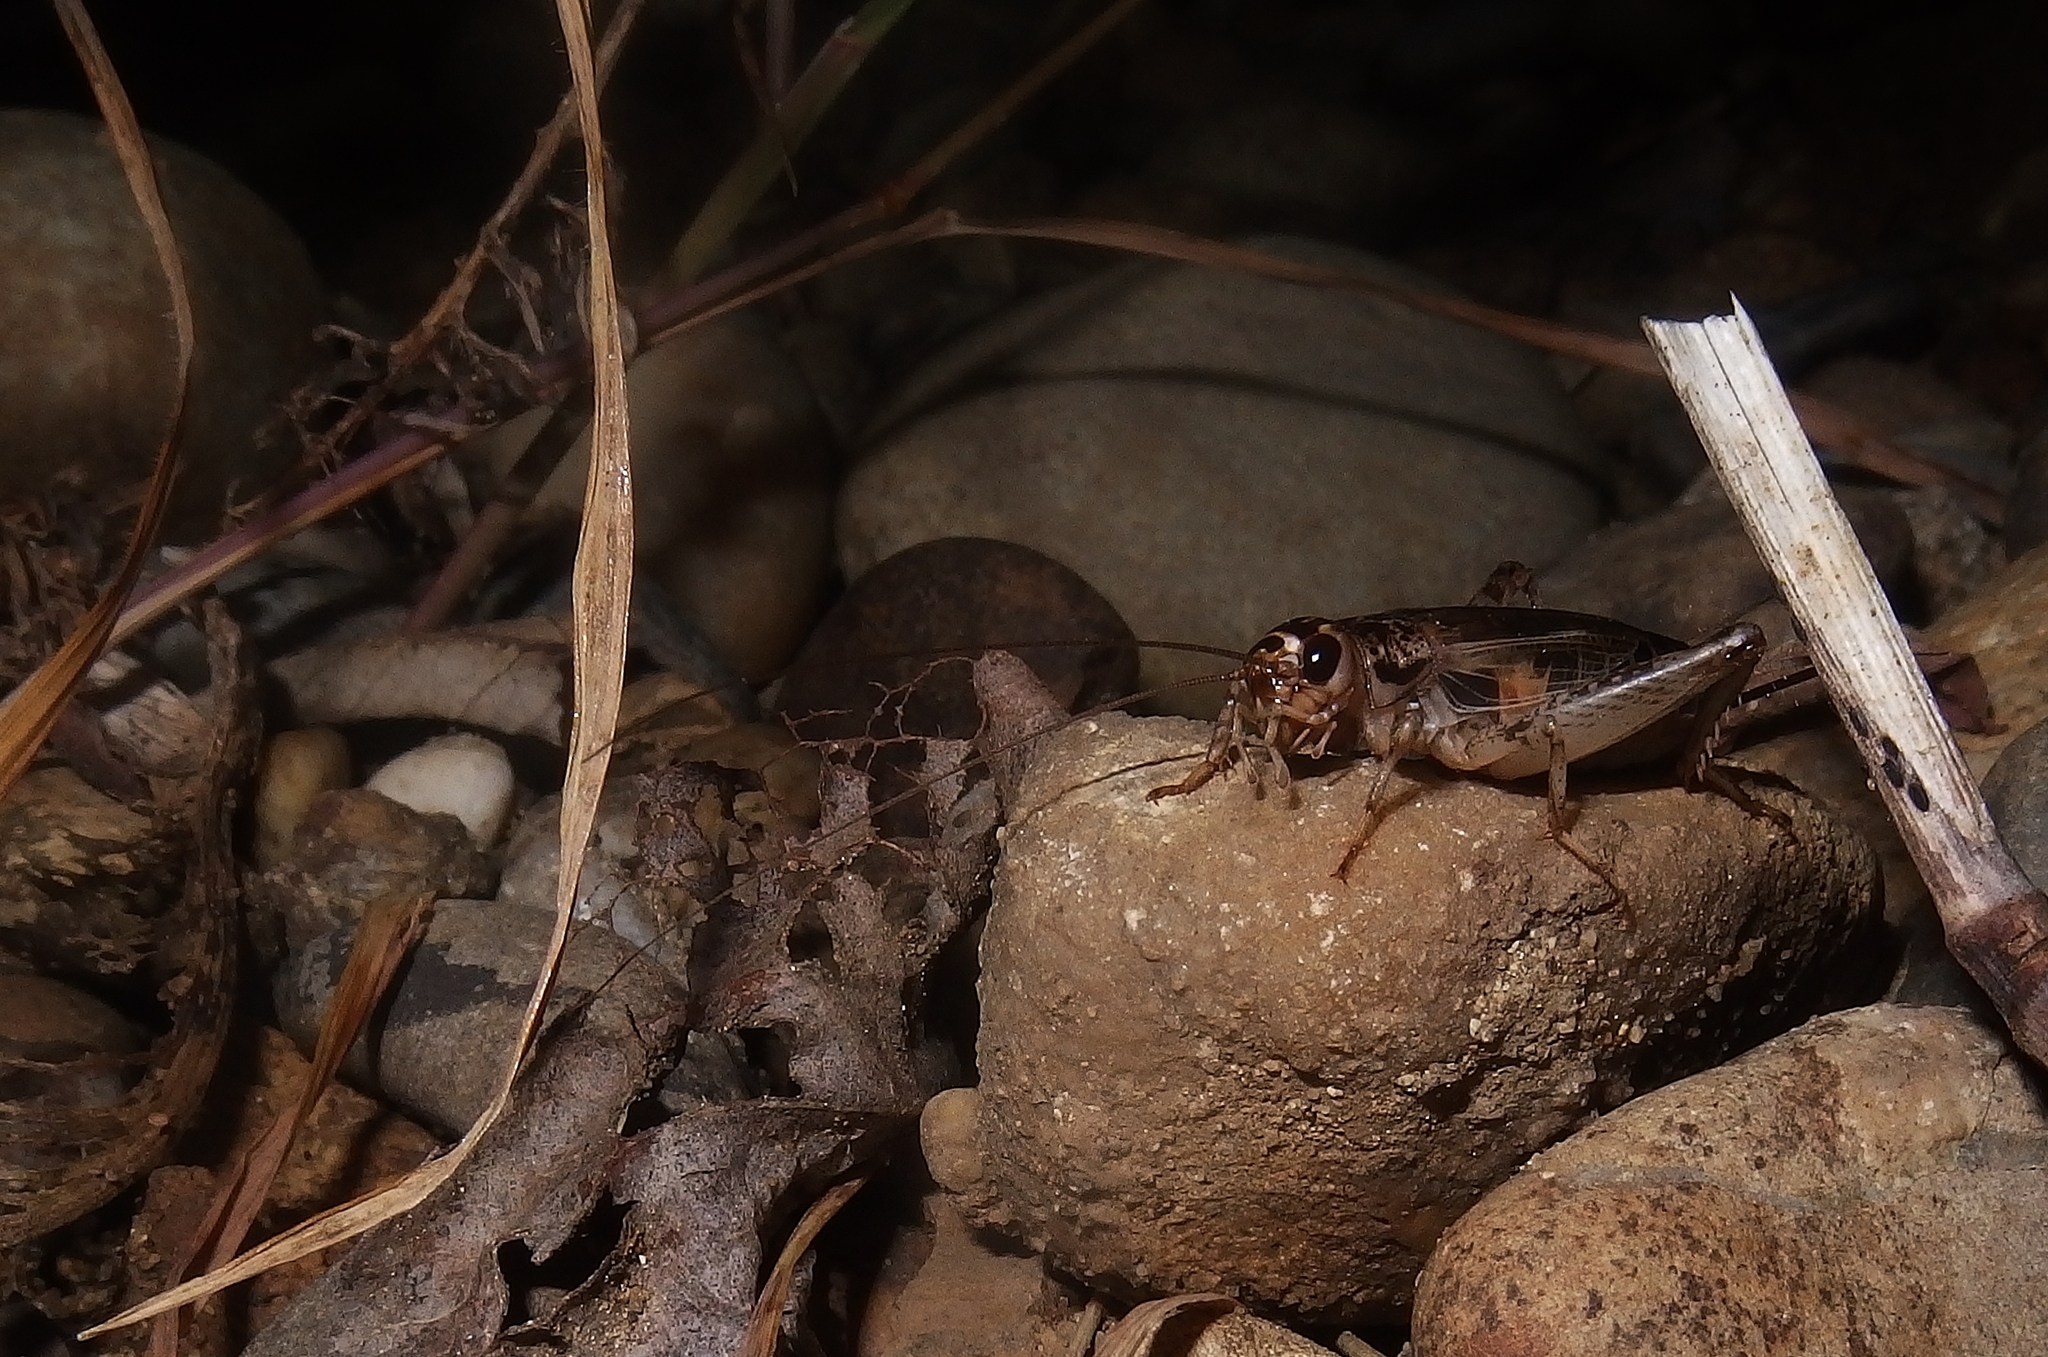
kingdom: Animalia
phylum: Arthropoda
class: Insecta
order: Orthoptera
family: Gryllidae
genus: Eumodicogryllus
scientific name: Eumodicogryllus bordigalensis
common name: Bordeaux cricket
